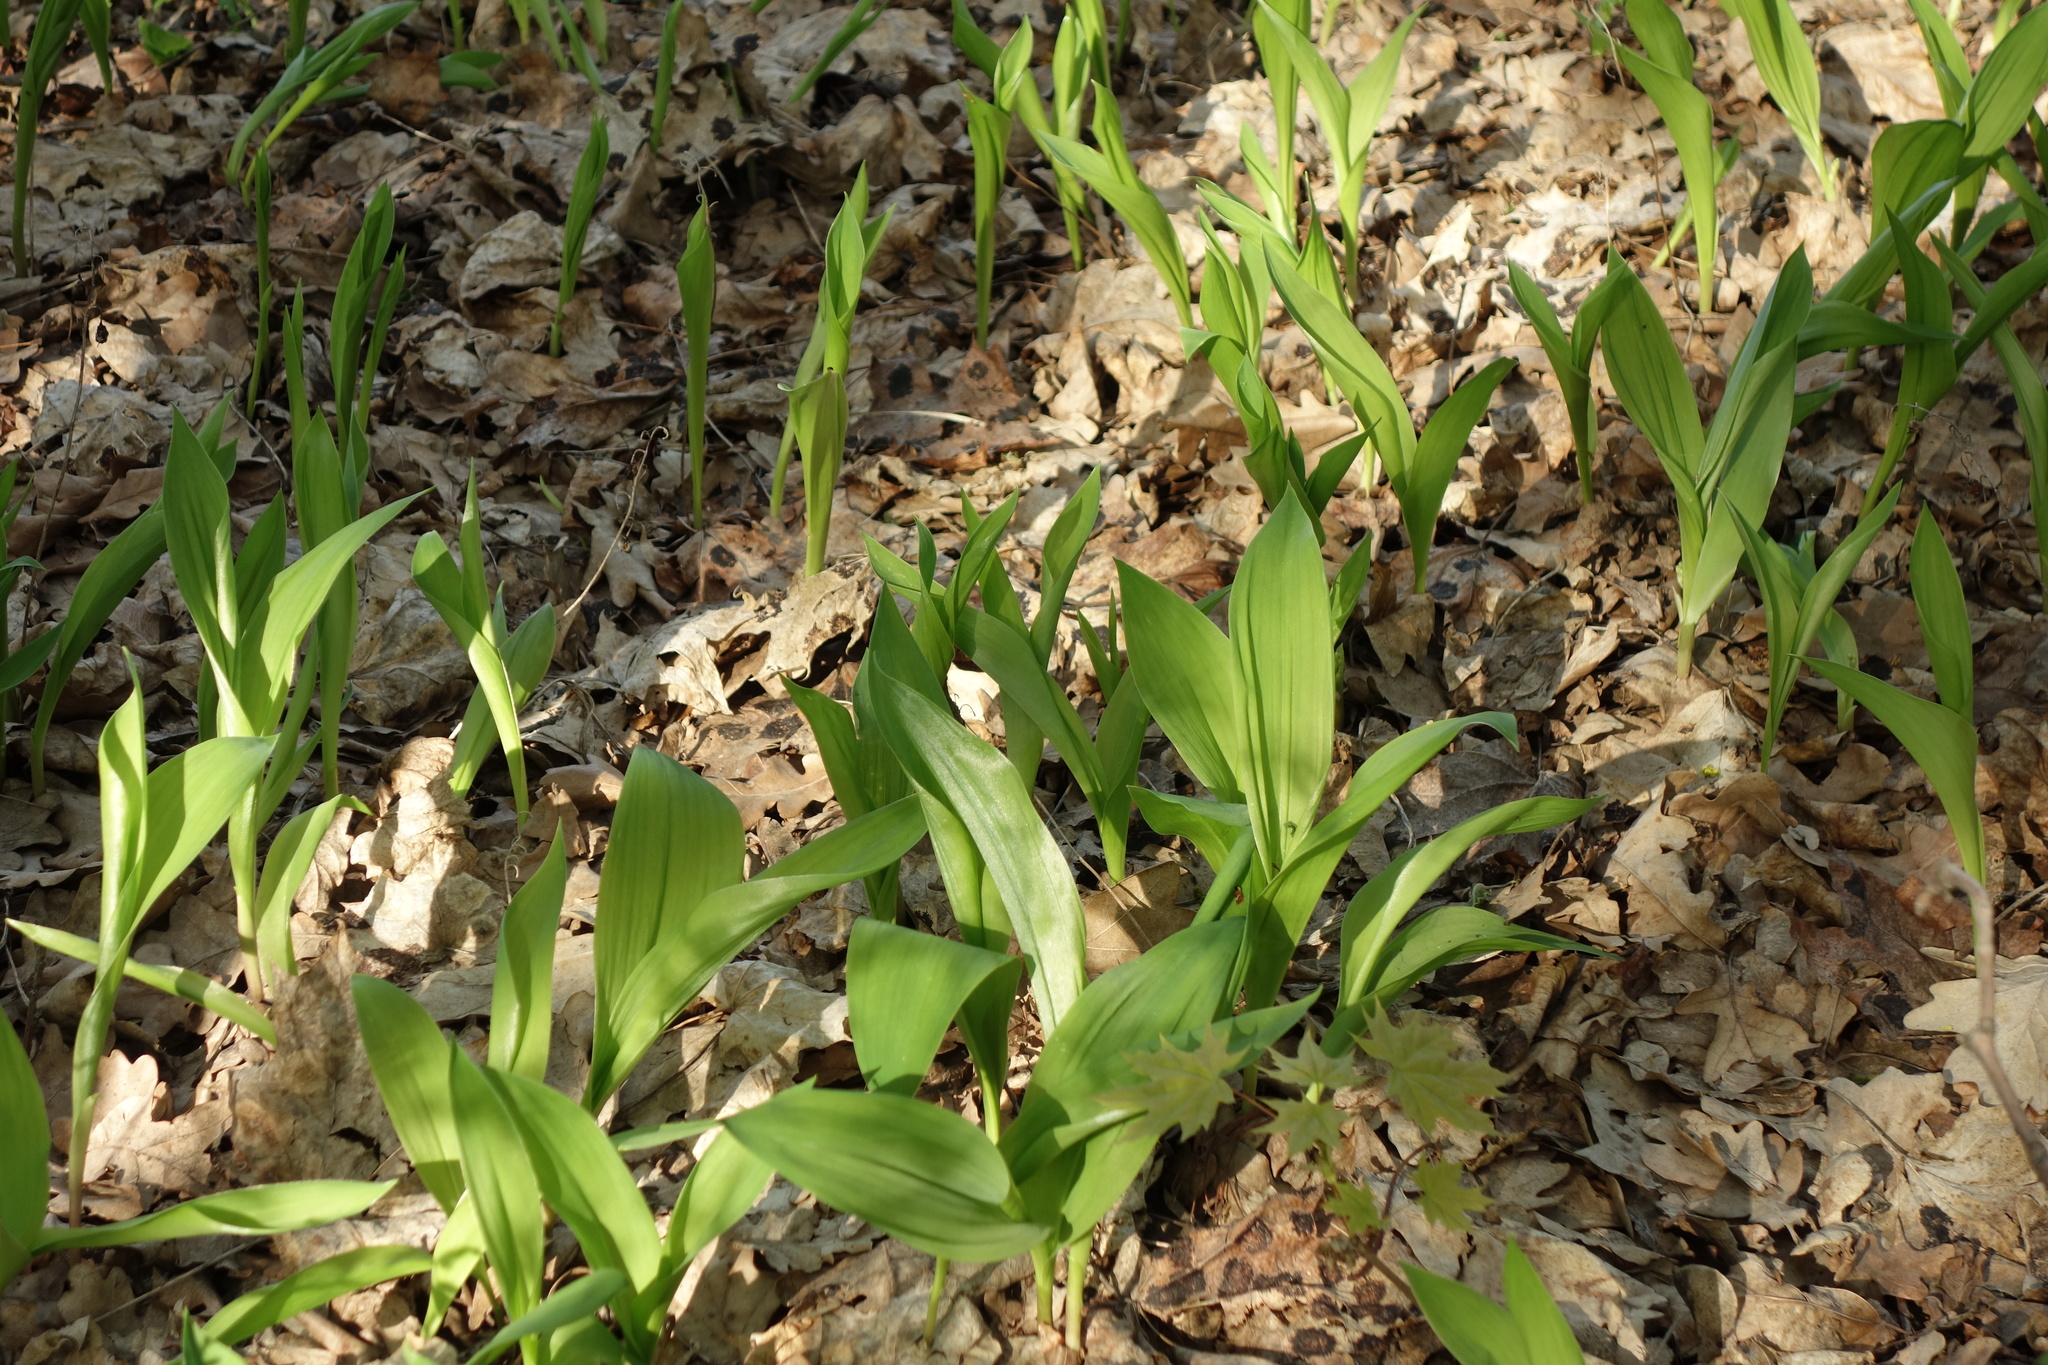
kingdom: Plantae
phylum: Tracheophyta
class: Liliopsida
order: Asparagales
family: Asparagaceae
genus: Convallaria
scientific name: Convallaria majalis
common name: Lily-of-the-valley
